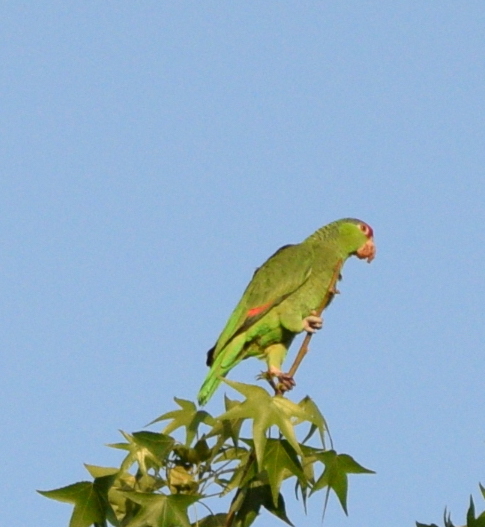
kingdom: Animalia
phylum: Chordata
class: Aves
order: Psittaciformes
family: Psittacidae
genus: Amazona
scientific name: Amazona viridigenalis
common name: Red-crowned amazon
